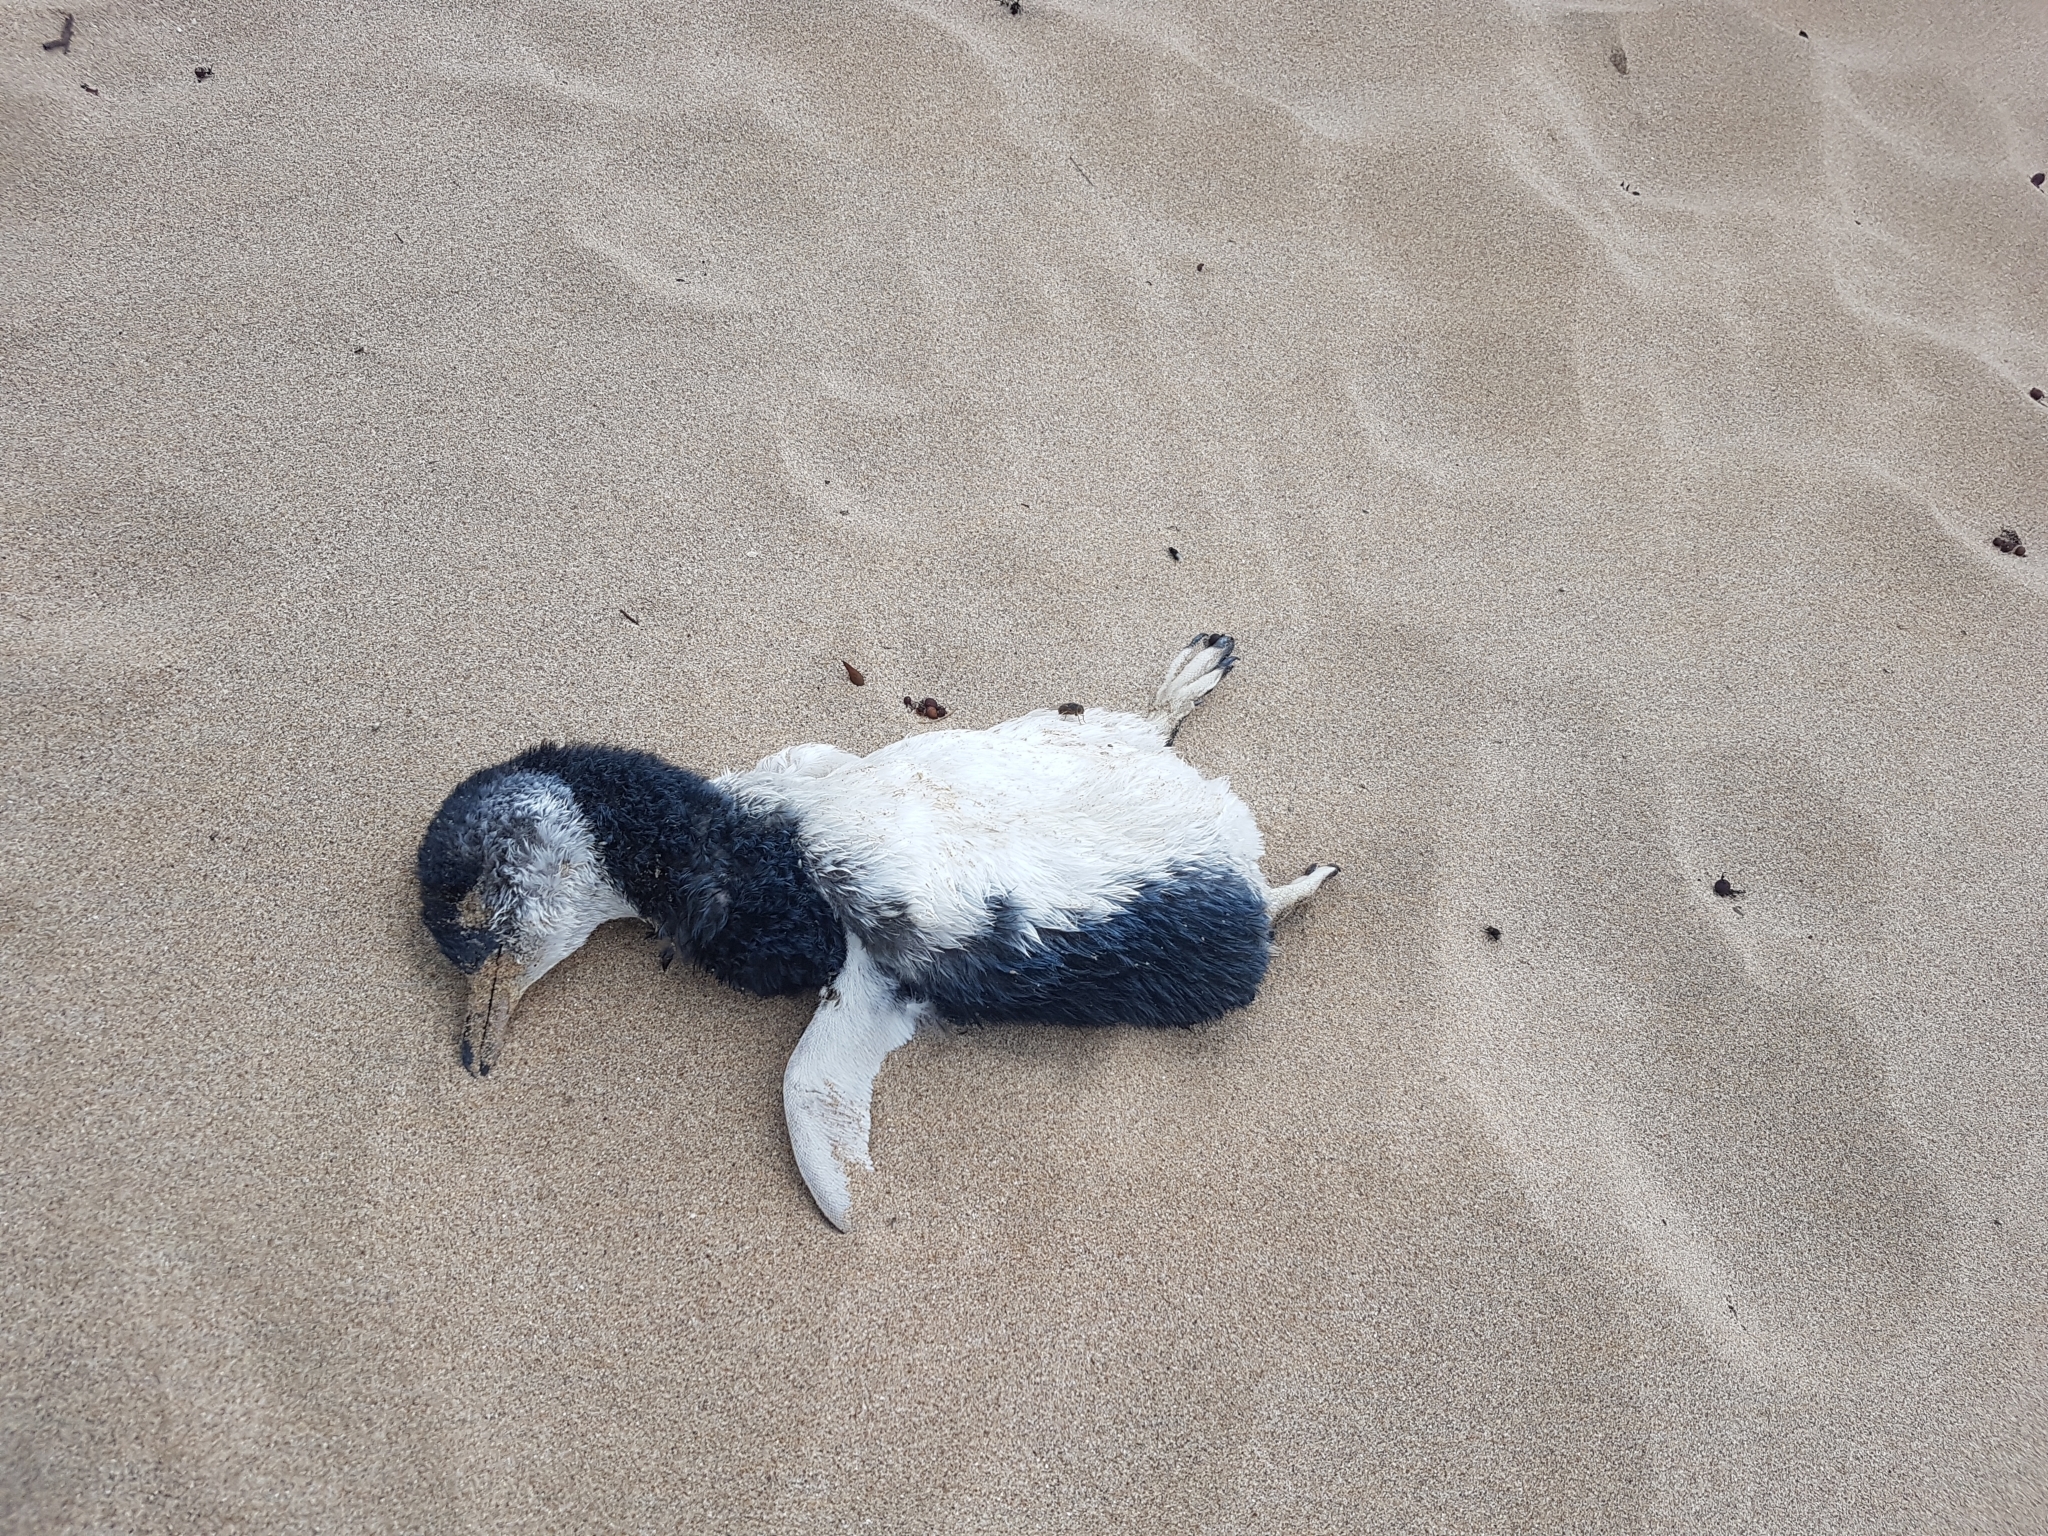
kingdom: Animalia
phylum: Chordata
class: Aves
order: Sphenisciformes
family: Spheniscidae
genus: Eudyptula
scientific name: Eudyptula minor
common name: Little penguin
